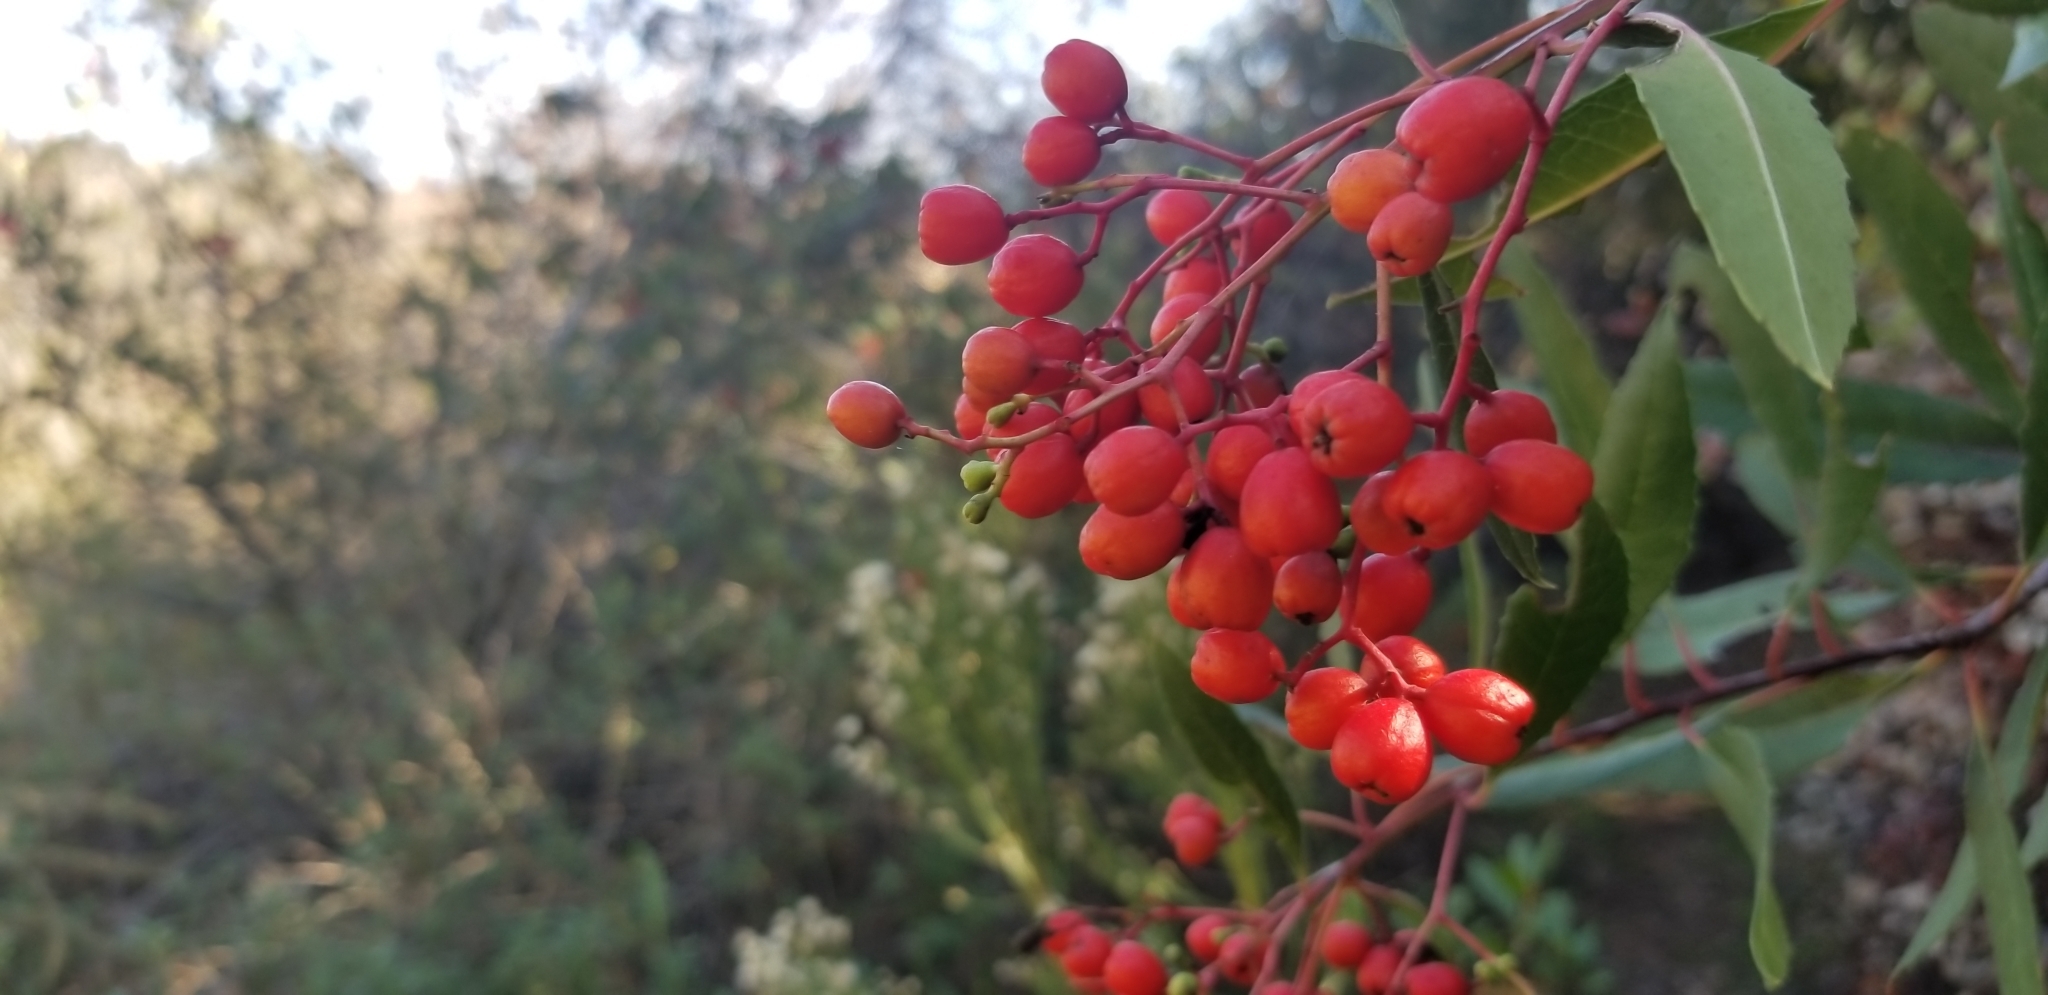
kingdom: Plantae
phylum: Tracheophyta
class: Magnoliopsida
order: Rosales
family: Rosaceae
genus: Heteromeles
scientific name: Heteromeles arbutifolia
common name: California-holly
